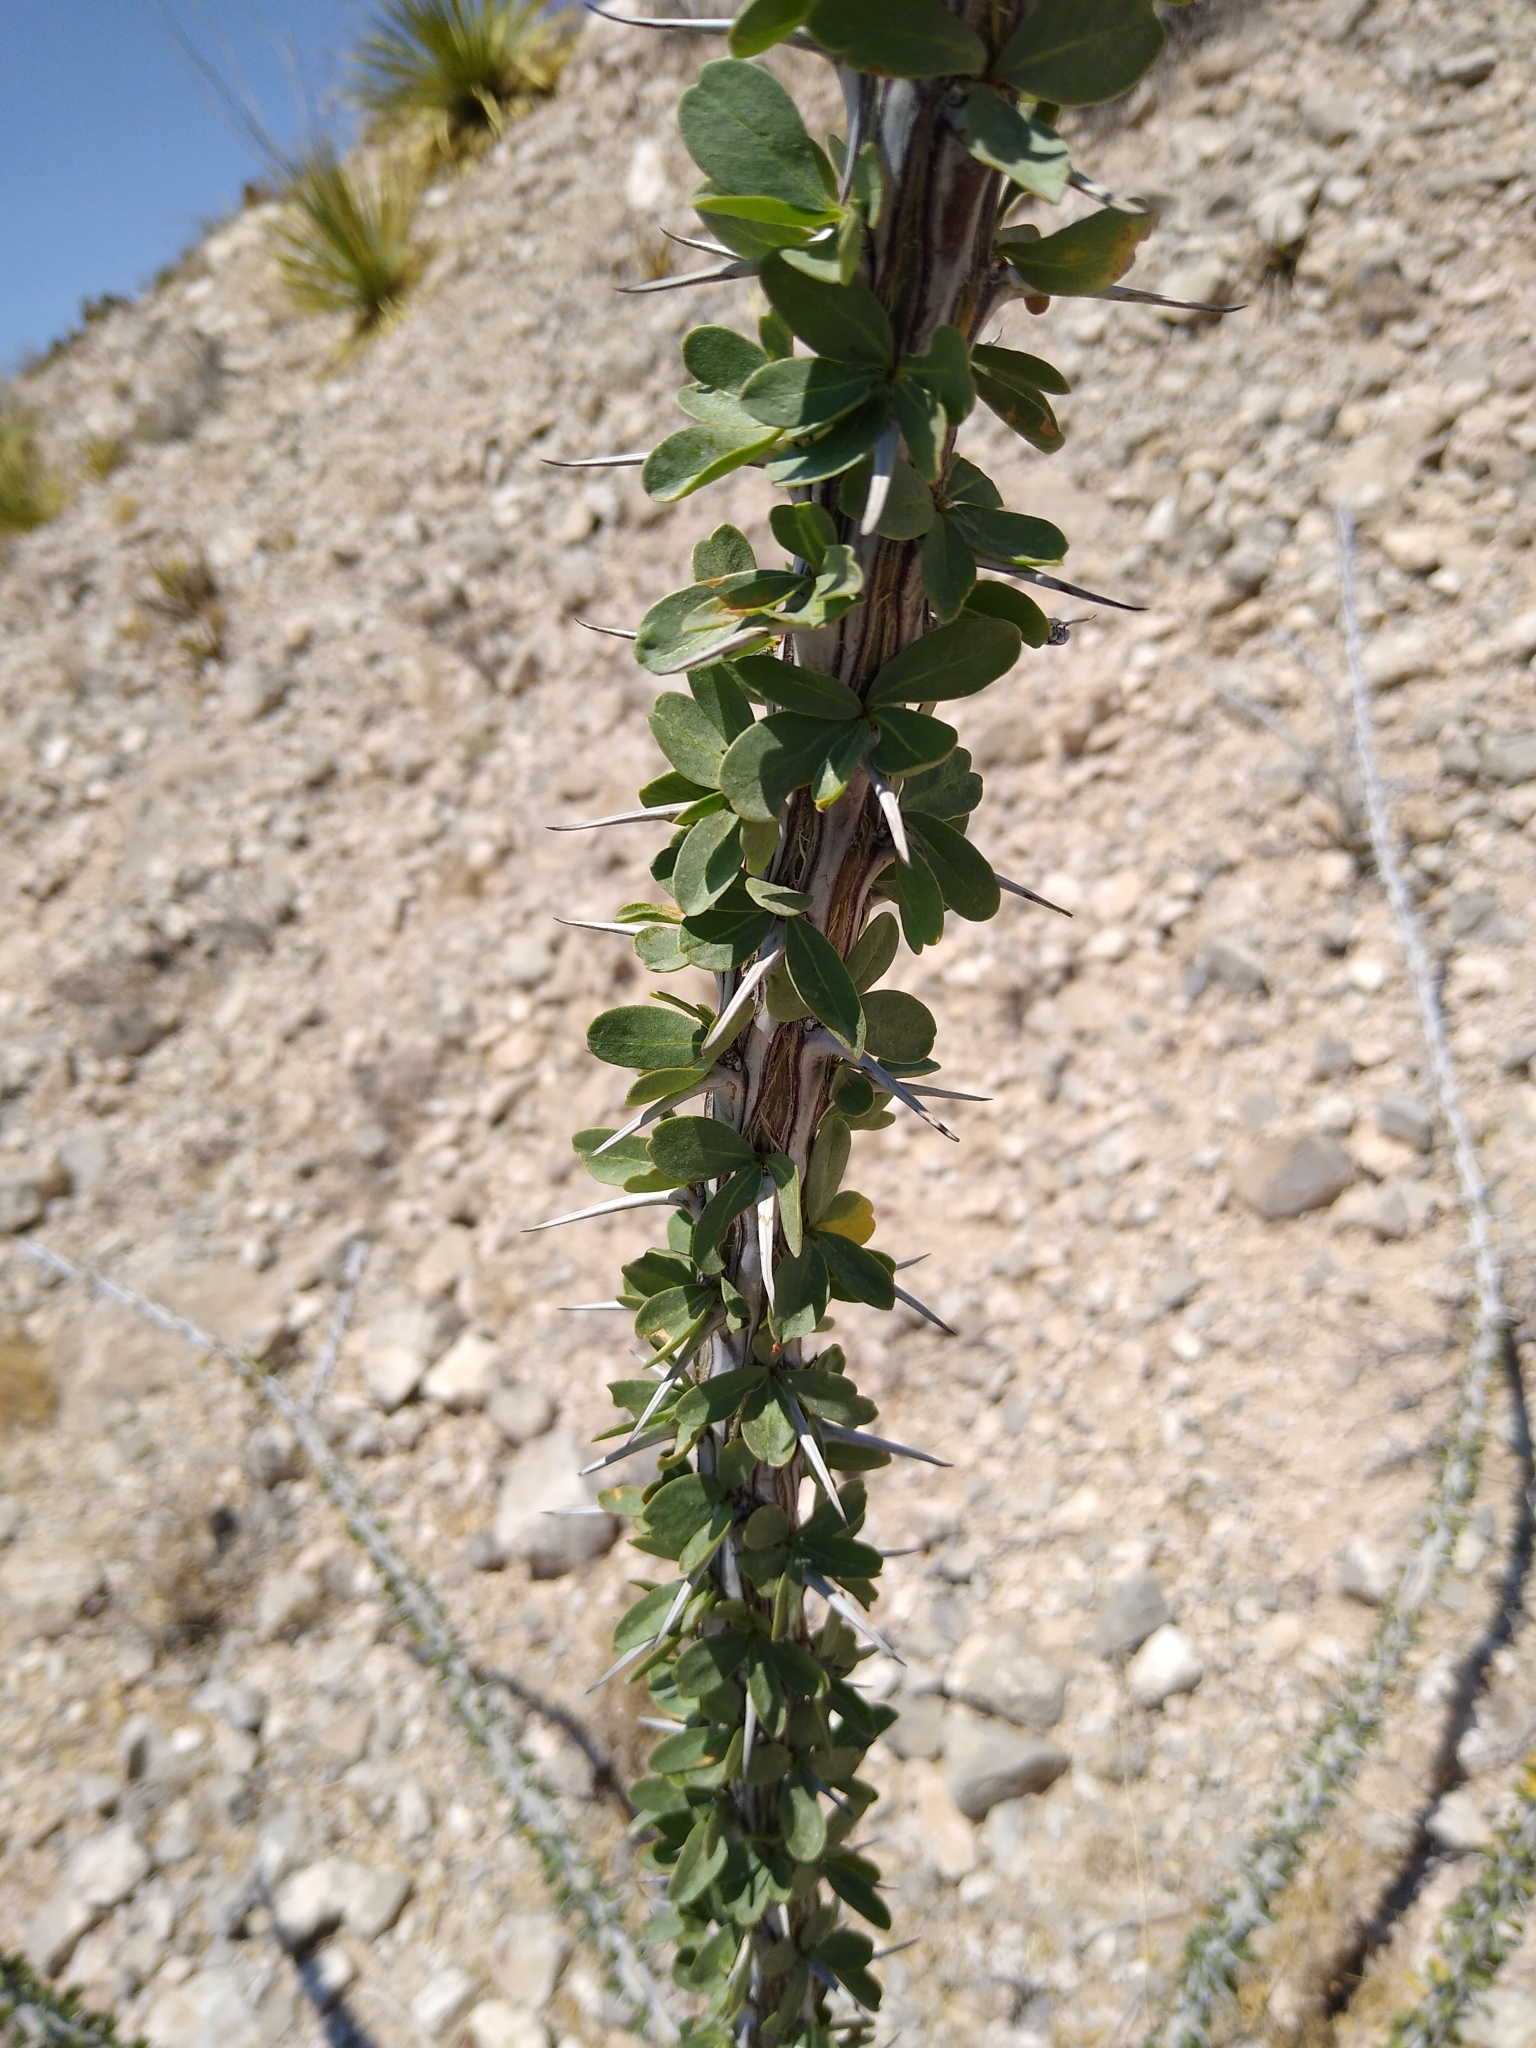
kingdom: Plantae
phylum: Tracheophyta
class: Magnoliopsida
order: Ericales
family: Fouquieriaceae
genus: Fouquieria
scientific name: Fouquieria splendens
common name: Vine-cactus
